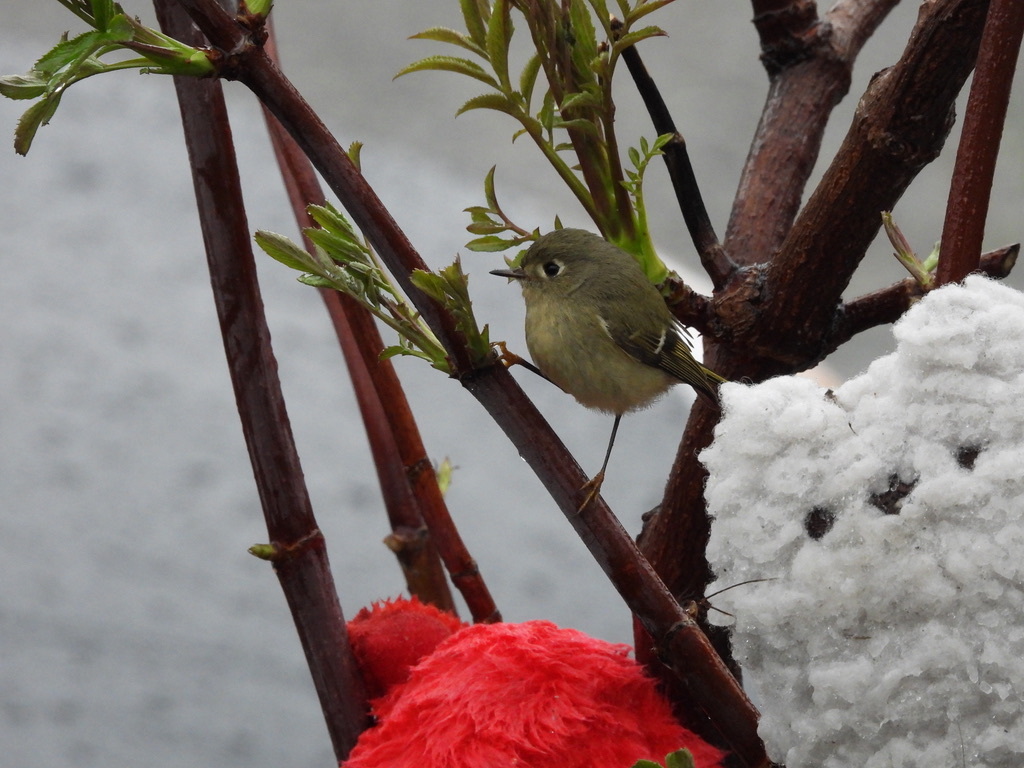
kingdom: Animalia
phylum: Chordata
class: Aves
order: Passeriformes
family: Regulidae
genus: Regulus
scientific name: Regulus calendula
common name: Ruby-crowned kinglet
